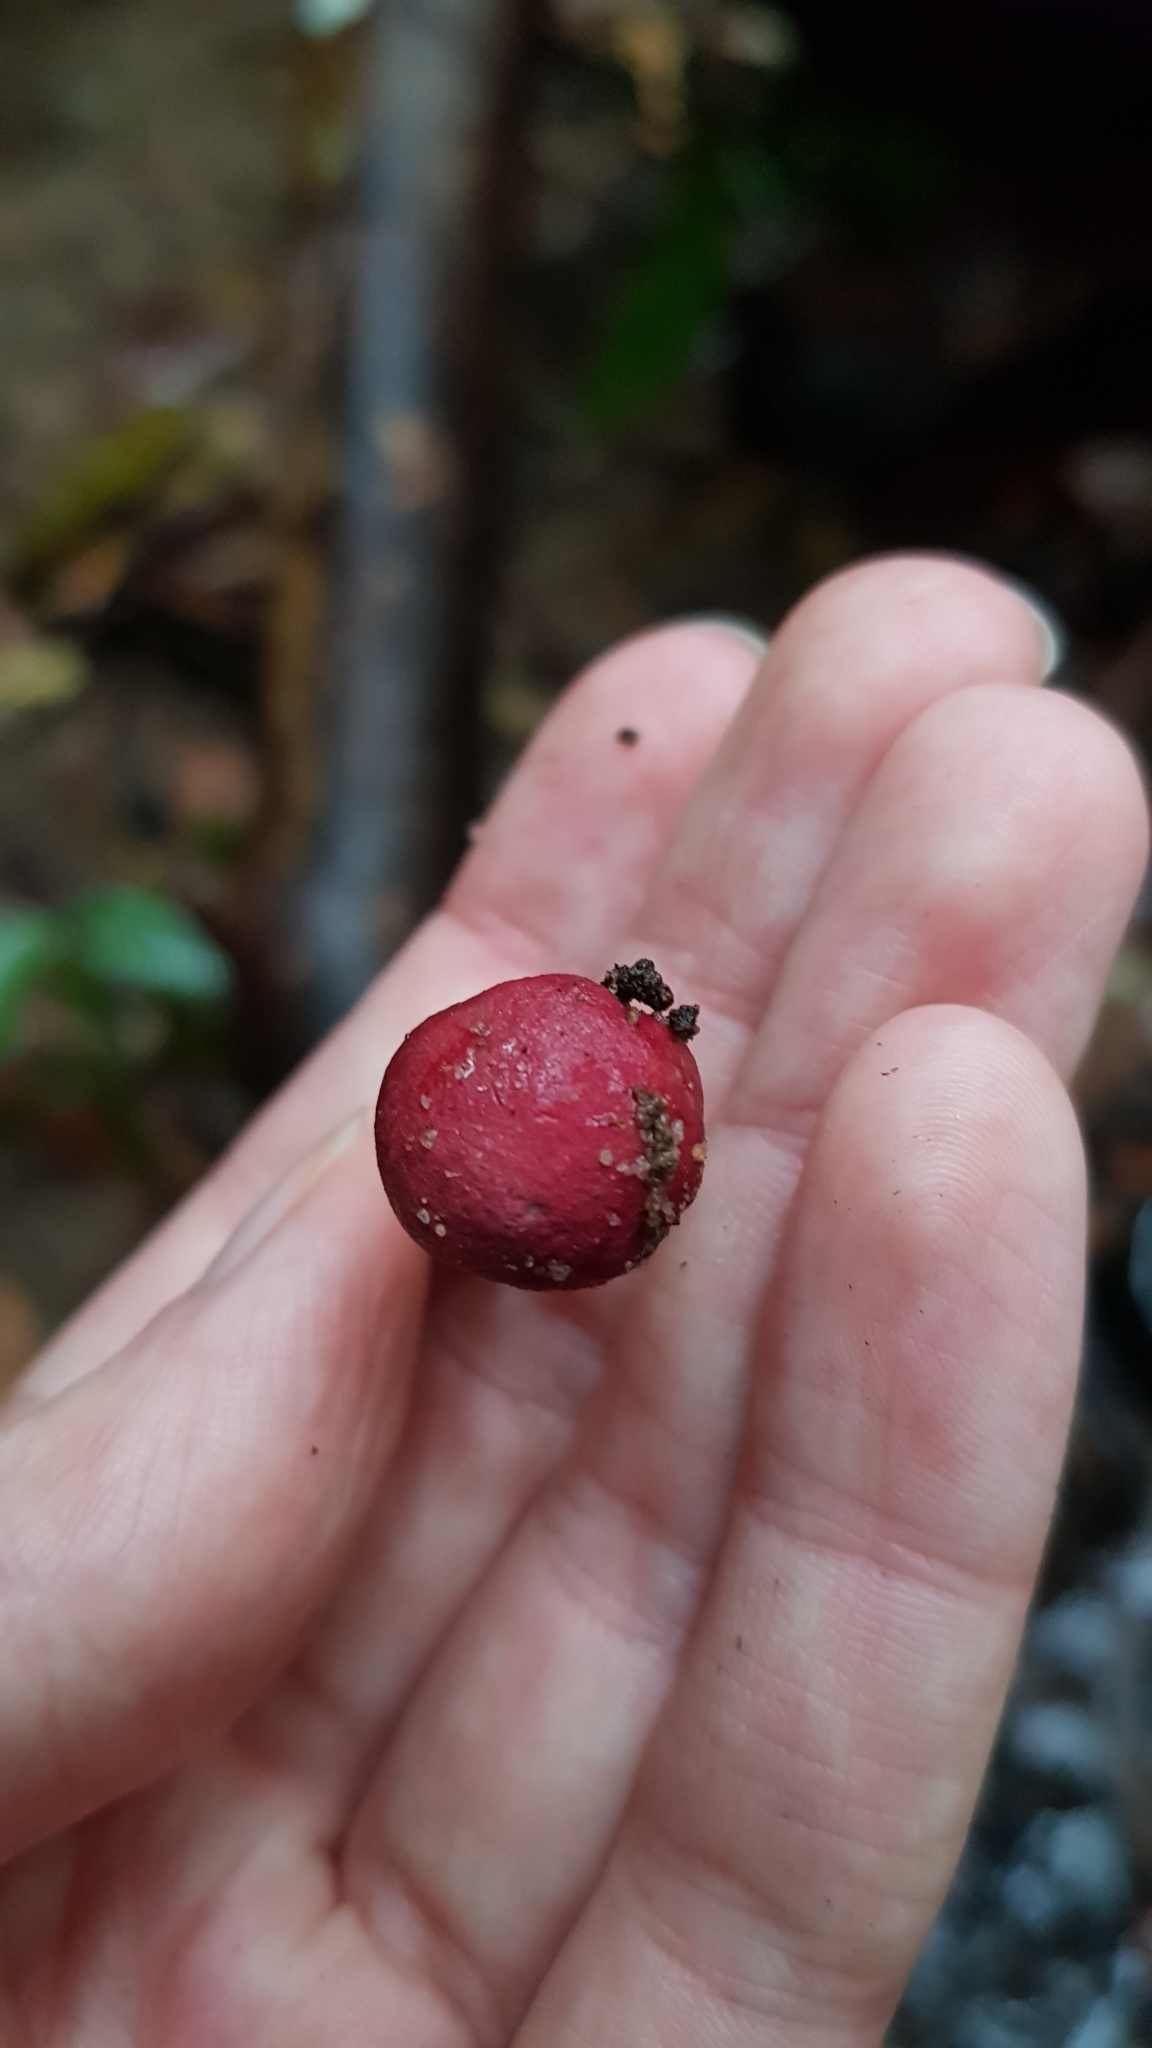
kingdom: Fungi
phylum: Basidiomycota
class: Agaricomycetes
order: Boletales
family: Boletaceae
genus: Boletellus
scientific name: Boletellus obscurecoccineus
